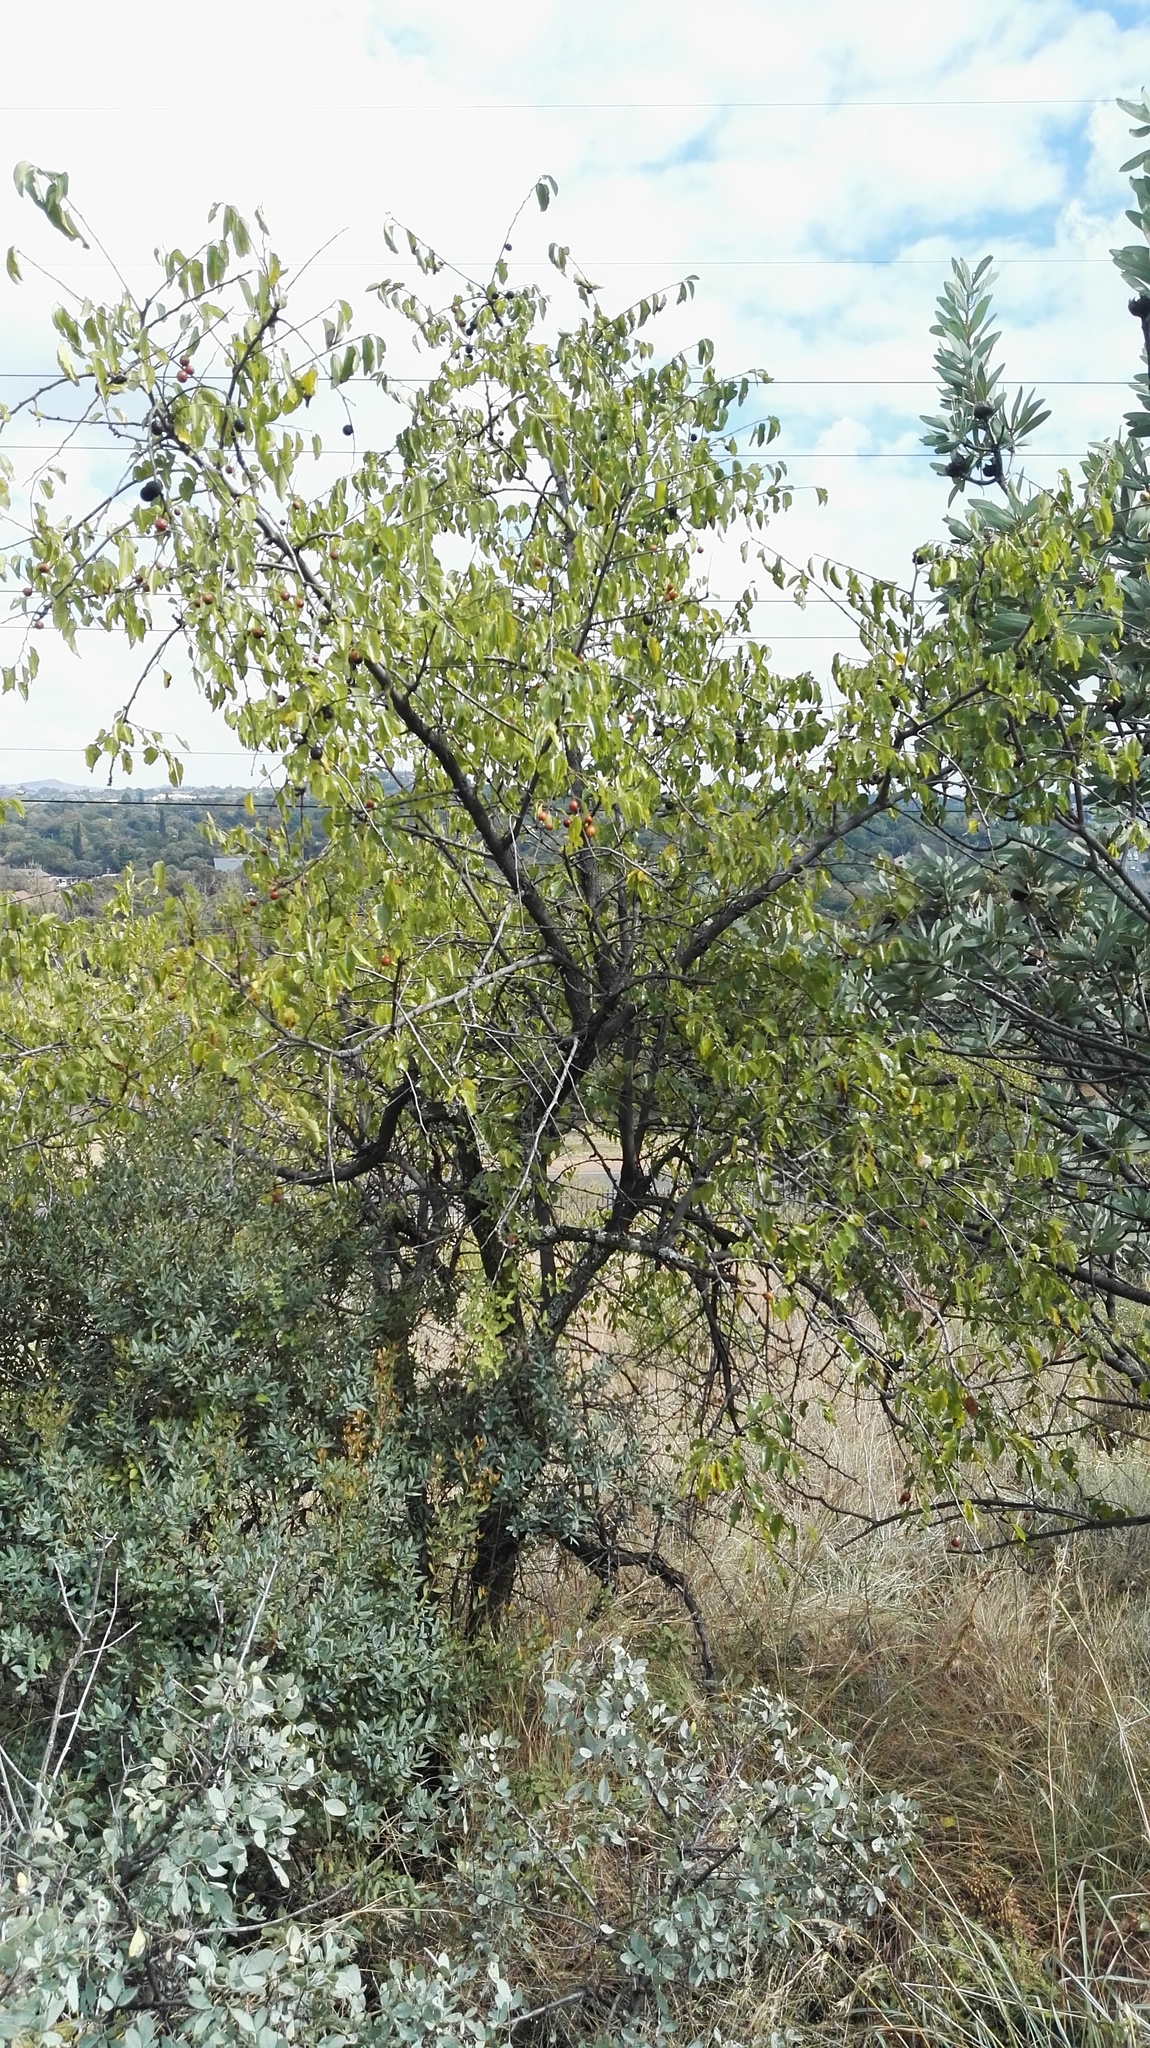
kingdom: Plantae
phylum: Tracheophyta
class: Magnoliopsida
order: Rosales
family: Rhamnaceae
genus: Ziziphus
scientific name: Ziziphus mucronata
